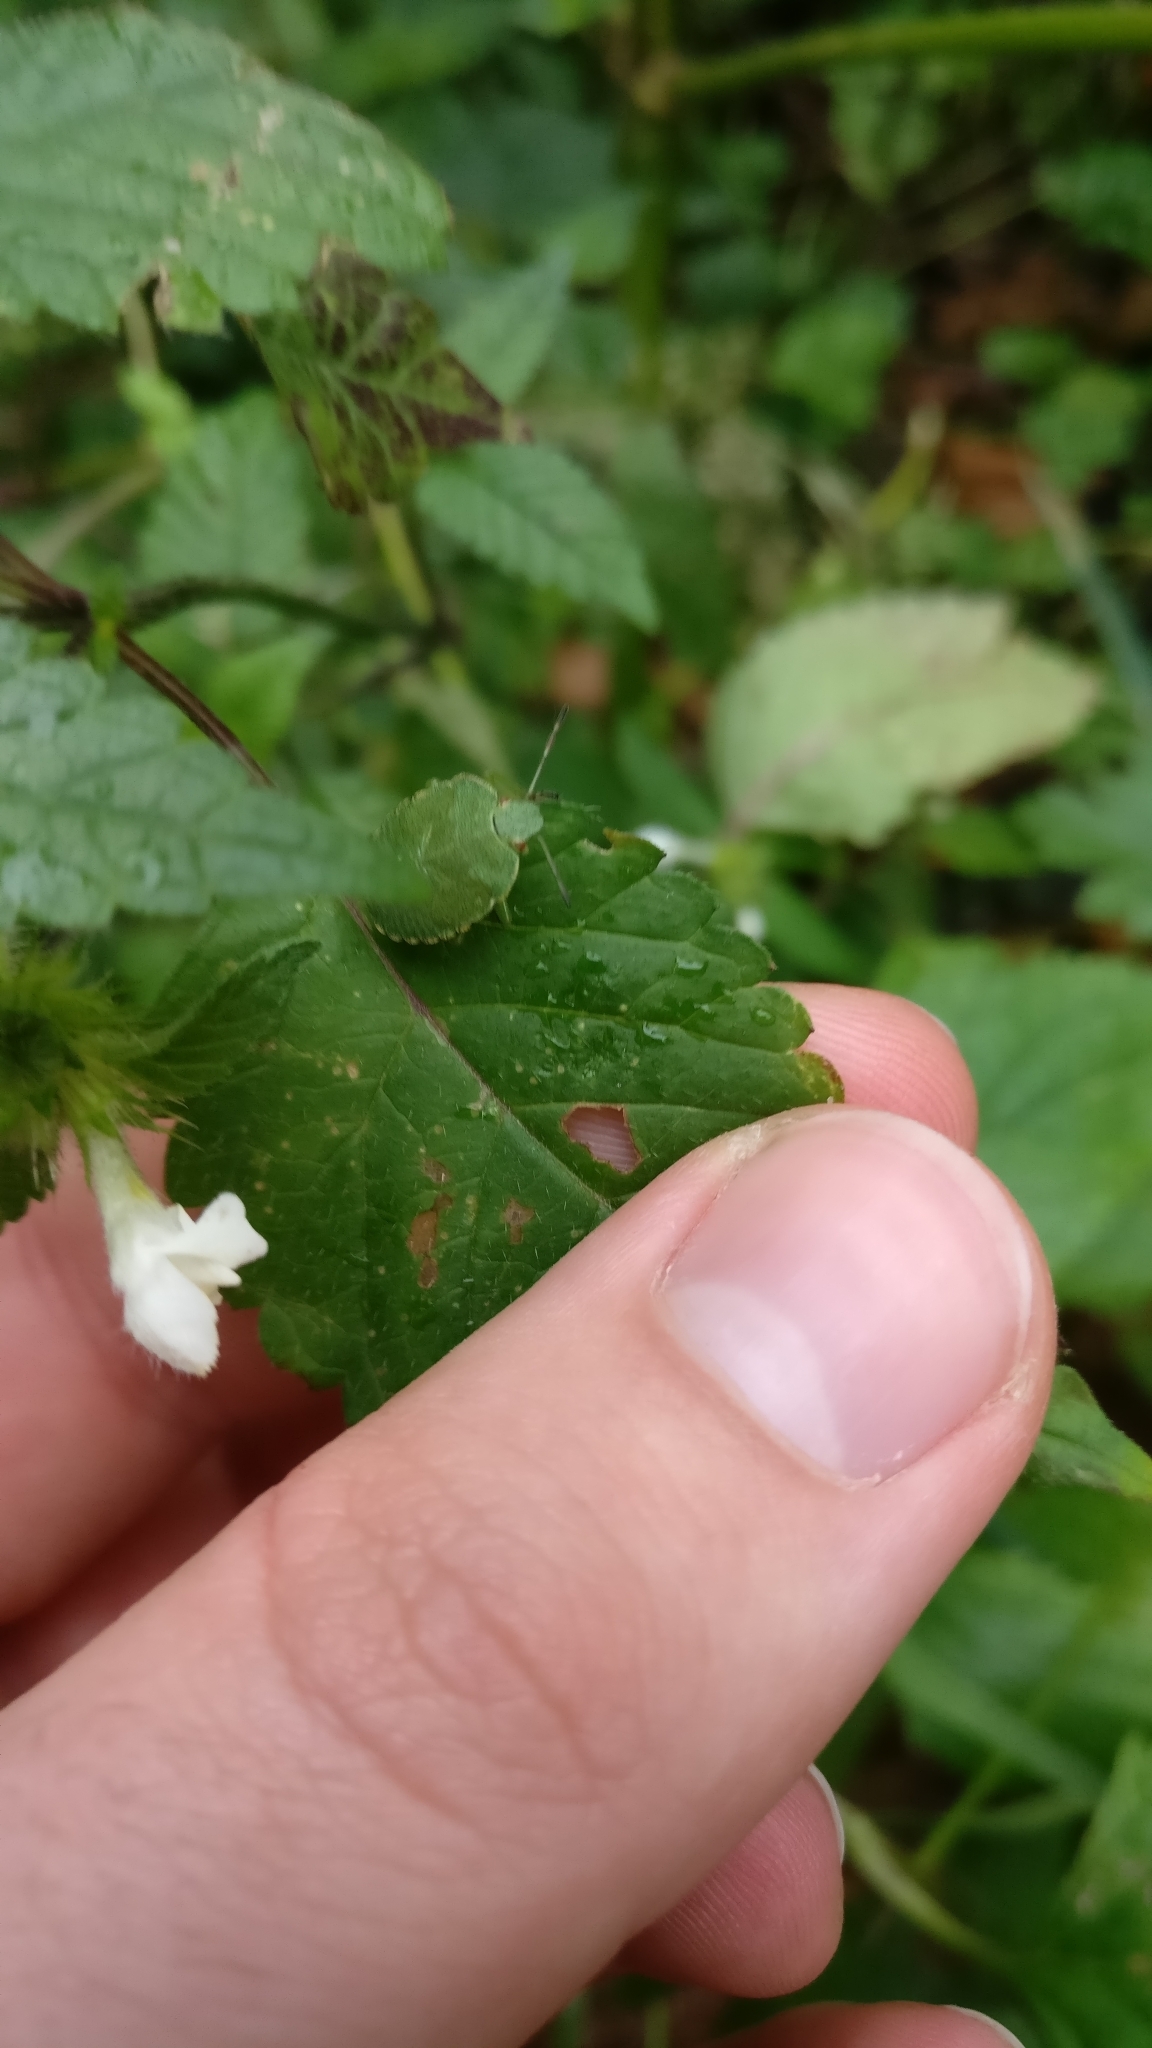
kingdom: Animalia
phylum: Arthropoda
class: Insecta
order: Hemiptera
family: Pentatomidae
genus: Palomena
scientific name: Palomena prasina
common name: Green shieldbug
